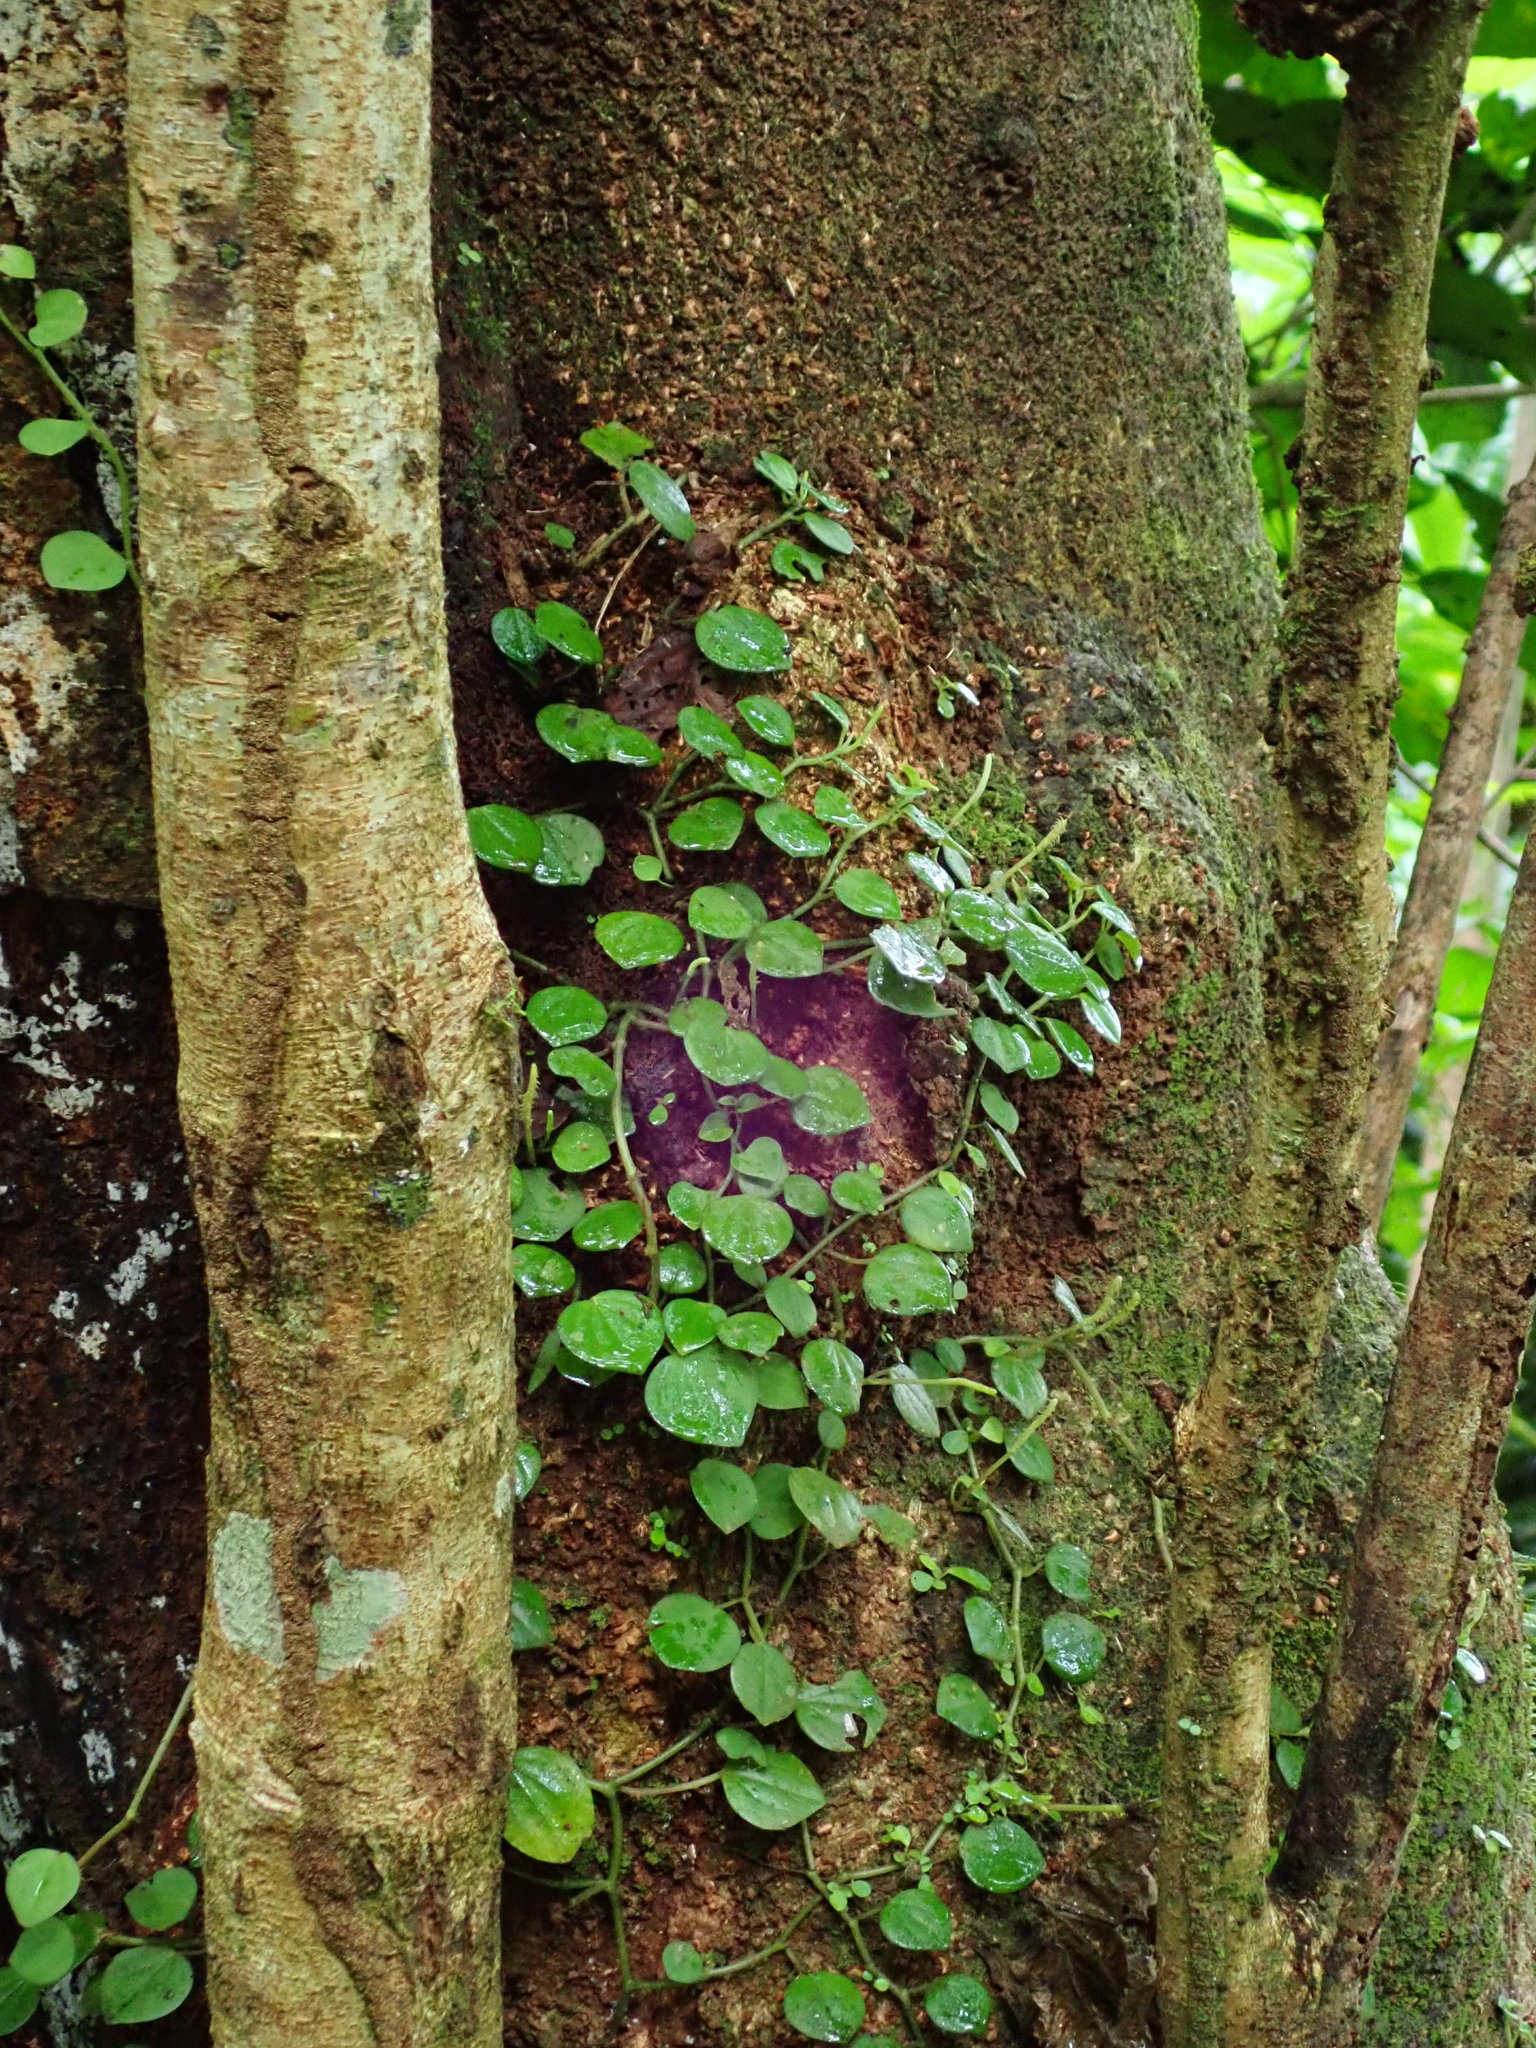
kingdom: Plantae
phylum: Tracheophyta
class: Magnoliopsida
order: Piperales
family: Piperaceae
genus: Peperomia
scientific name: Peperomia serpens
